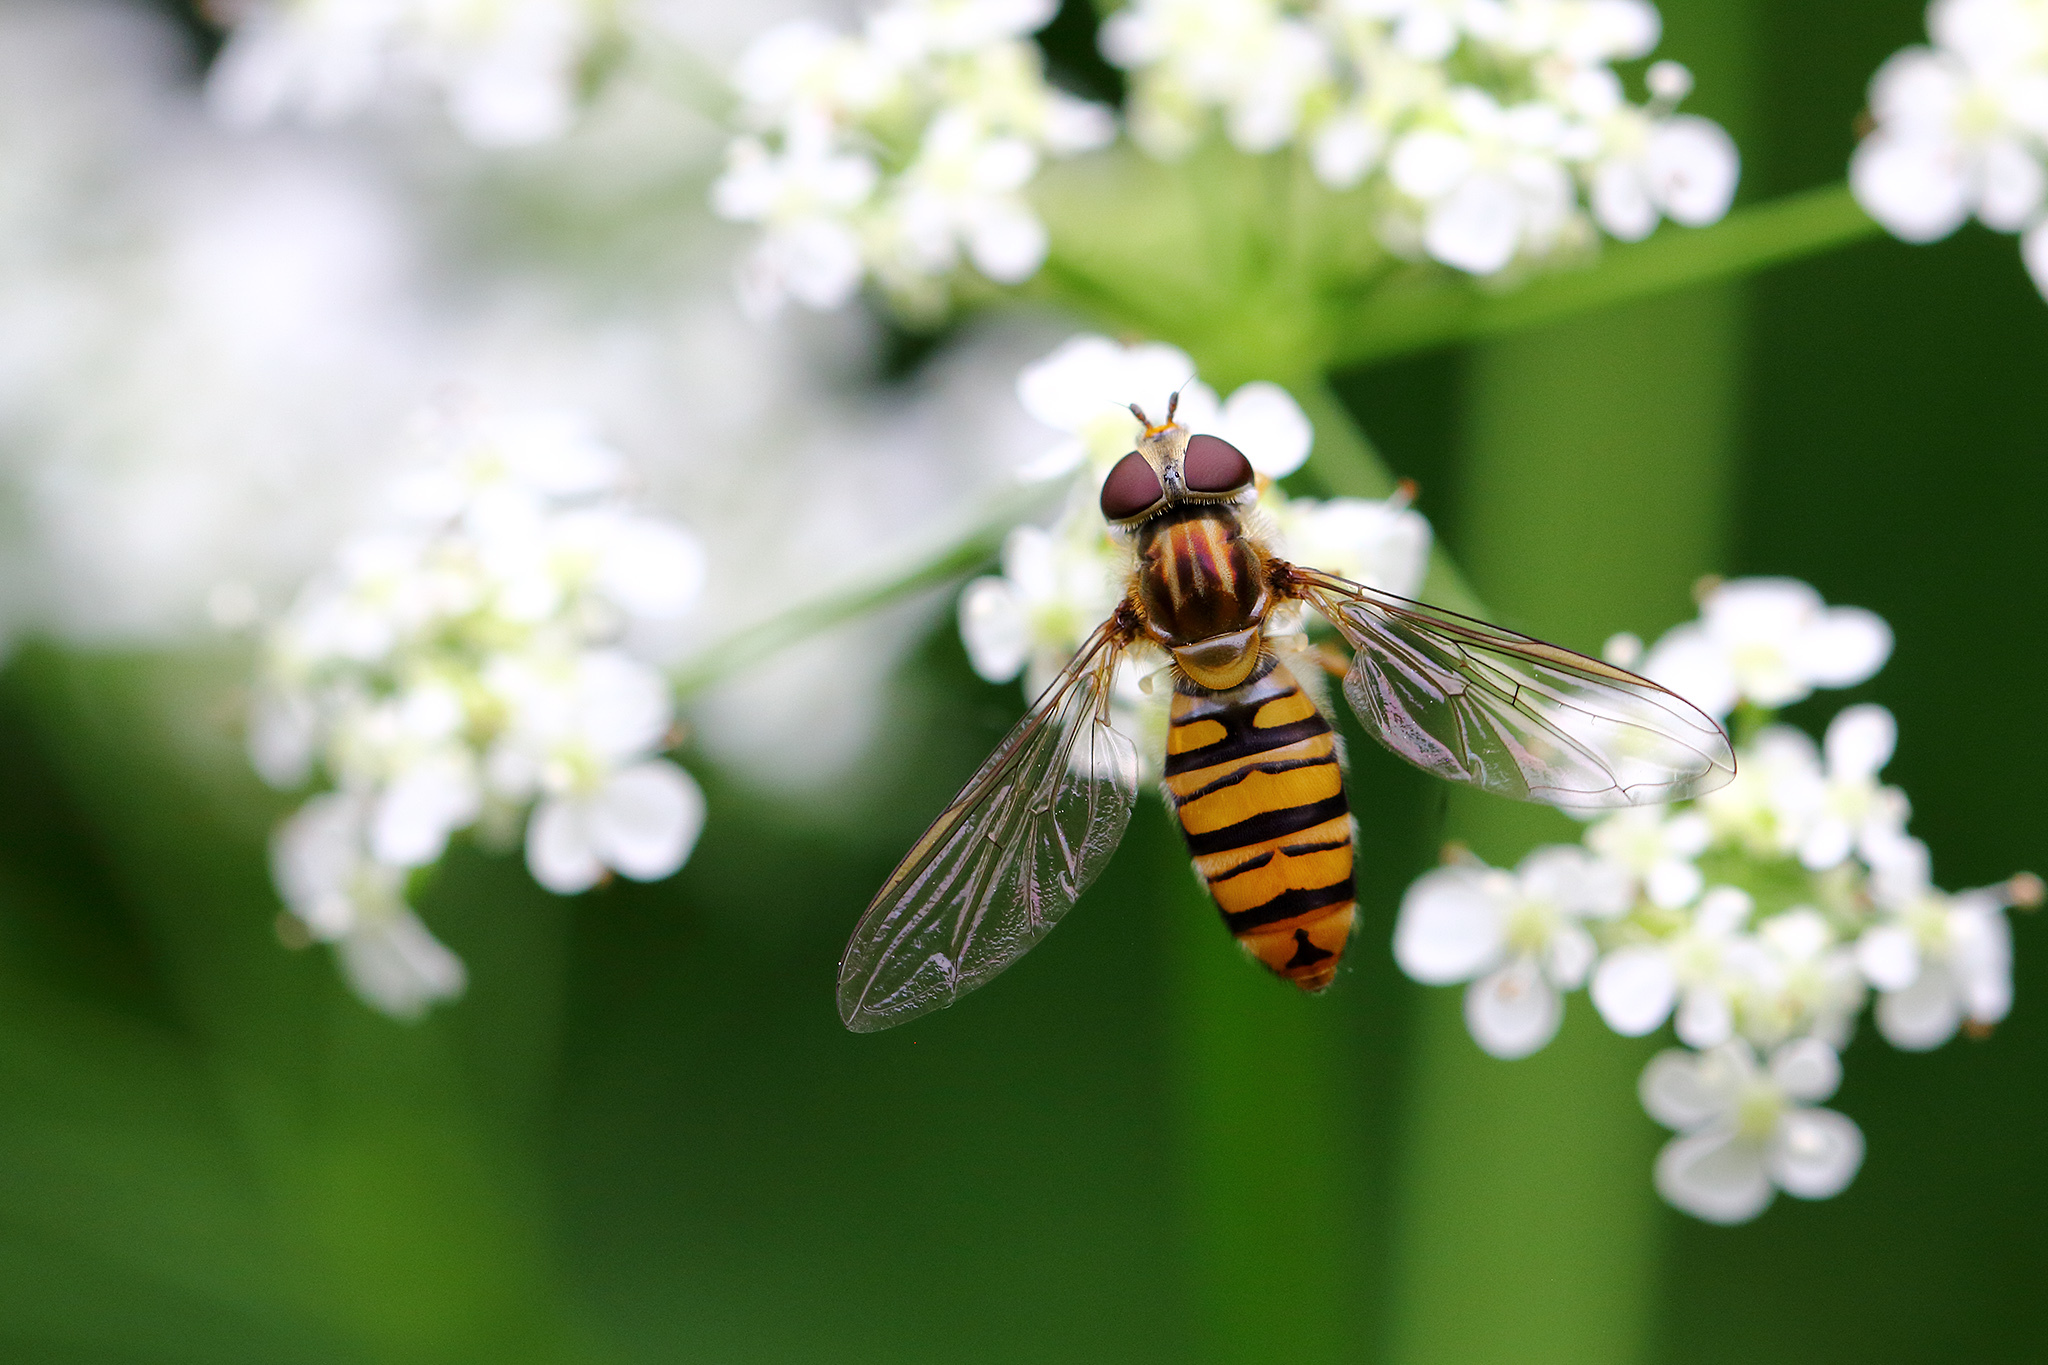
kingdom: Animalia
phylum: Arthropoda
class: Insecta
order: Diptera
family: Syrphidae
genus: Episyrphus
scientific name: Episyrphus balteatus
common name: Marmalade hoverfly
